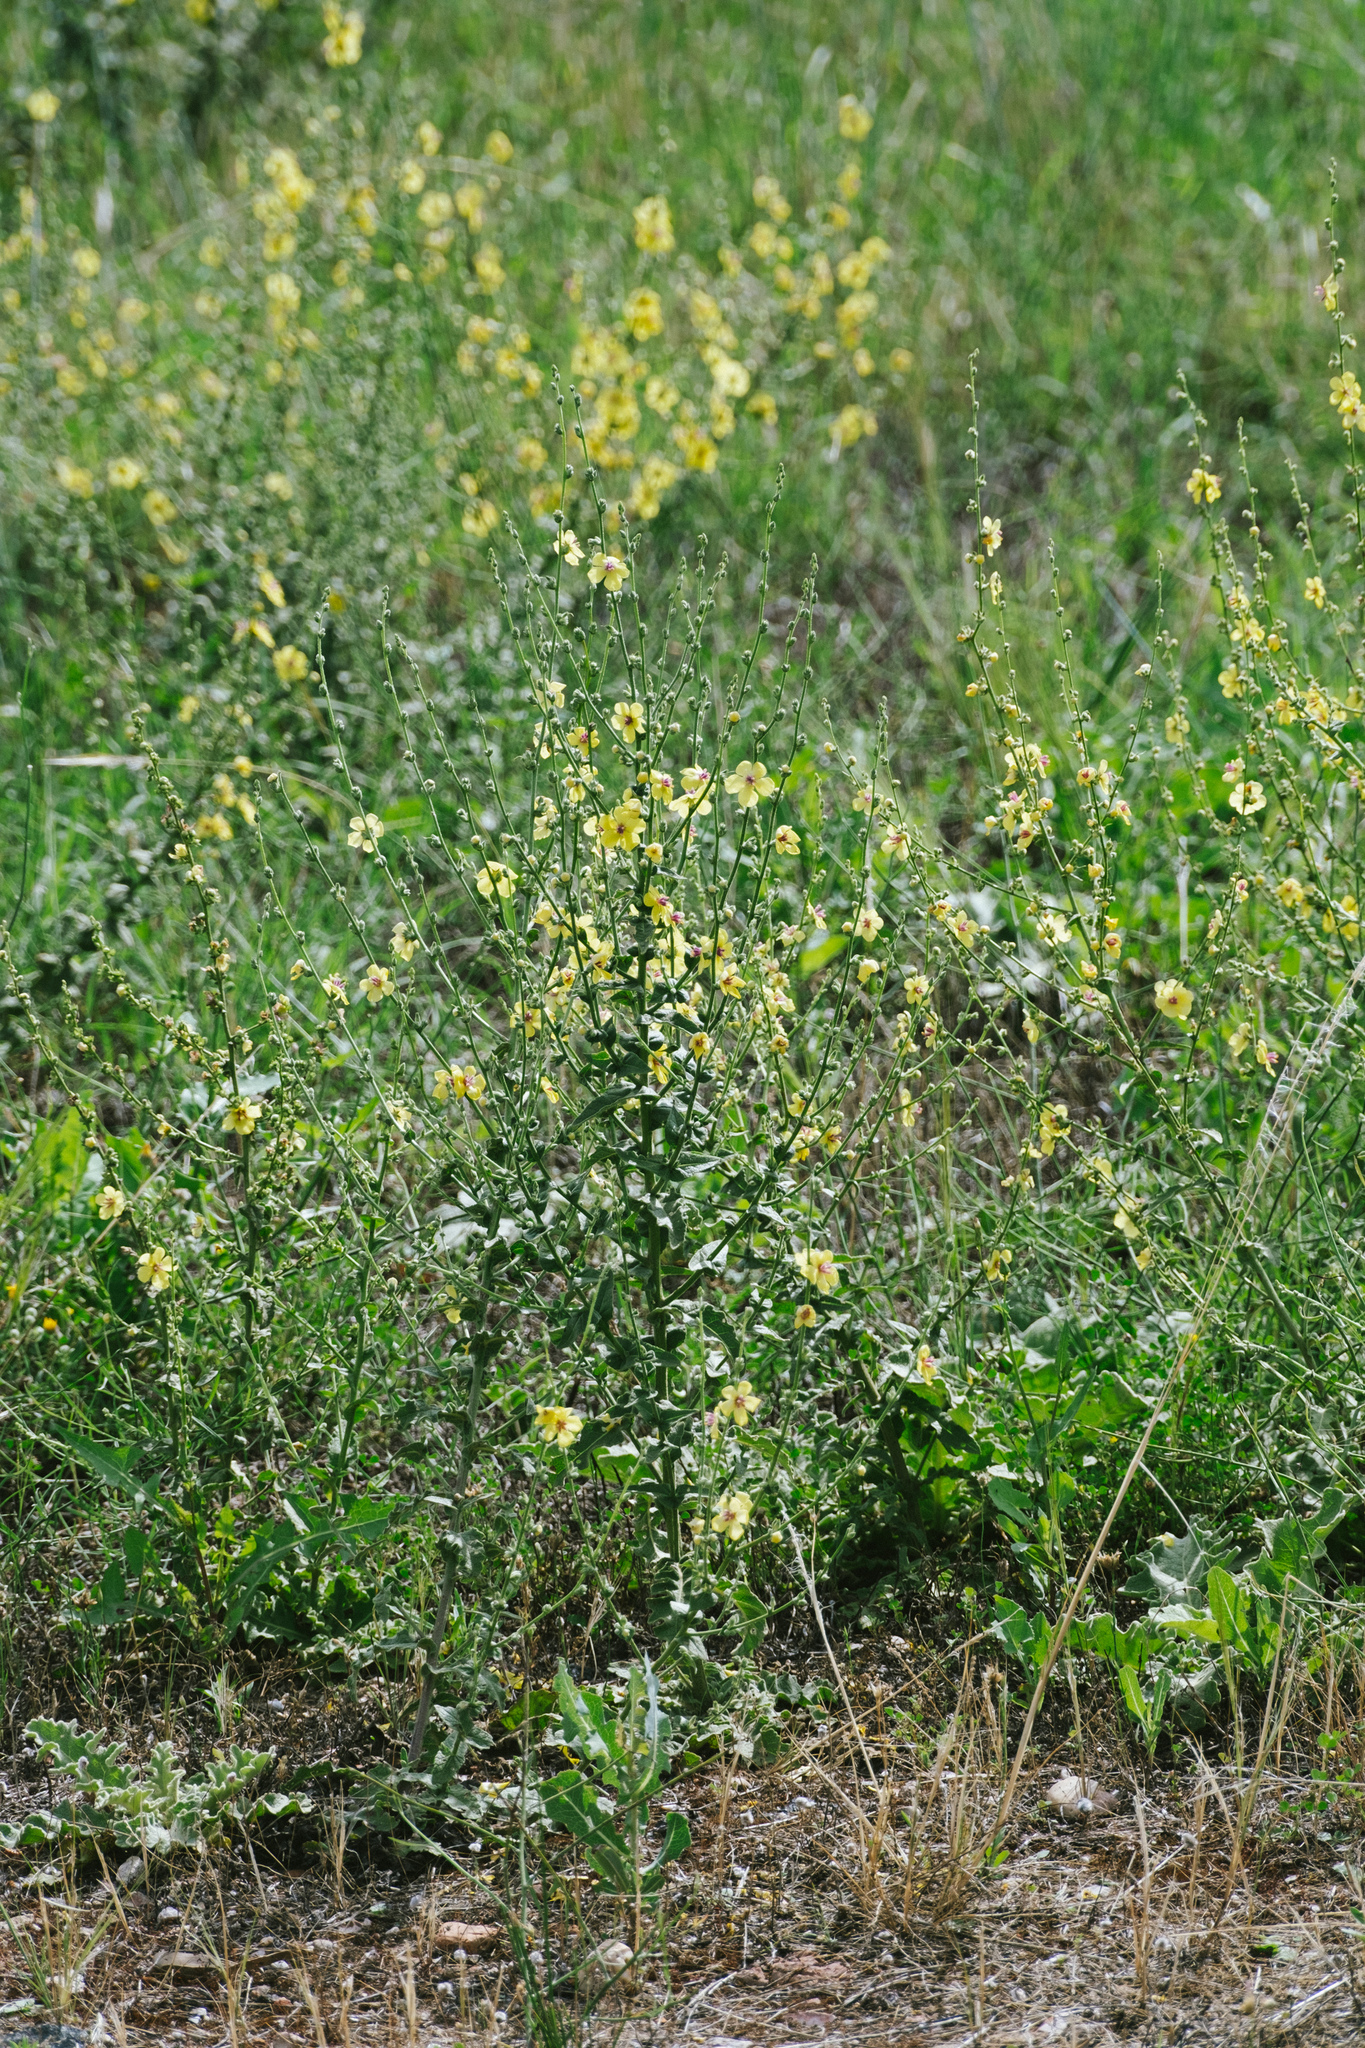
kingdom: Plantae
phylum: Tracheophyta
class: Magnoliopsida
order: Lamiales
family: Scrophulariaceae
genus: Verbascum
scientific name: Verbascum sinuatum
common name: Wavyleaf mullein
